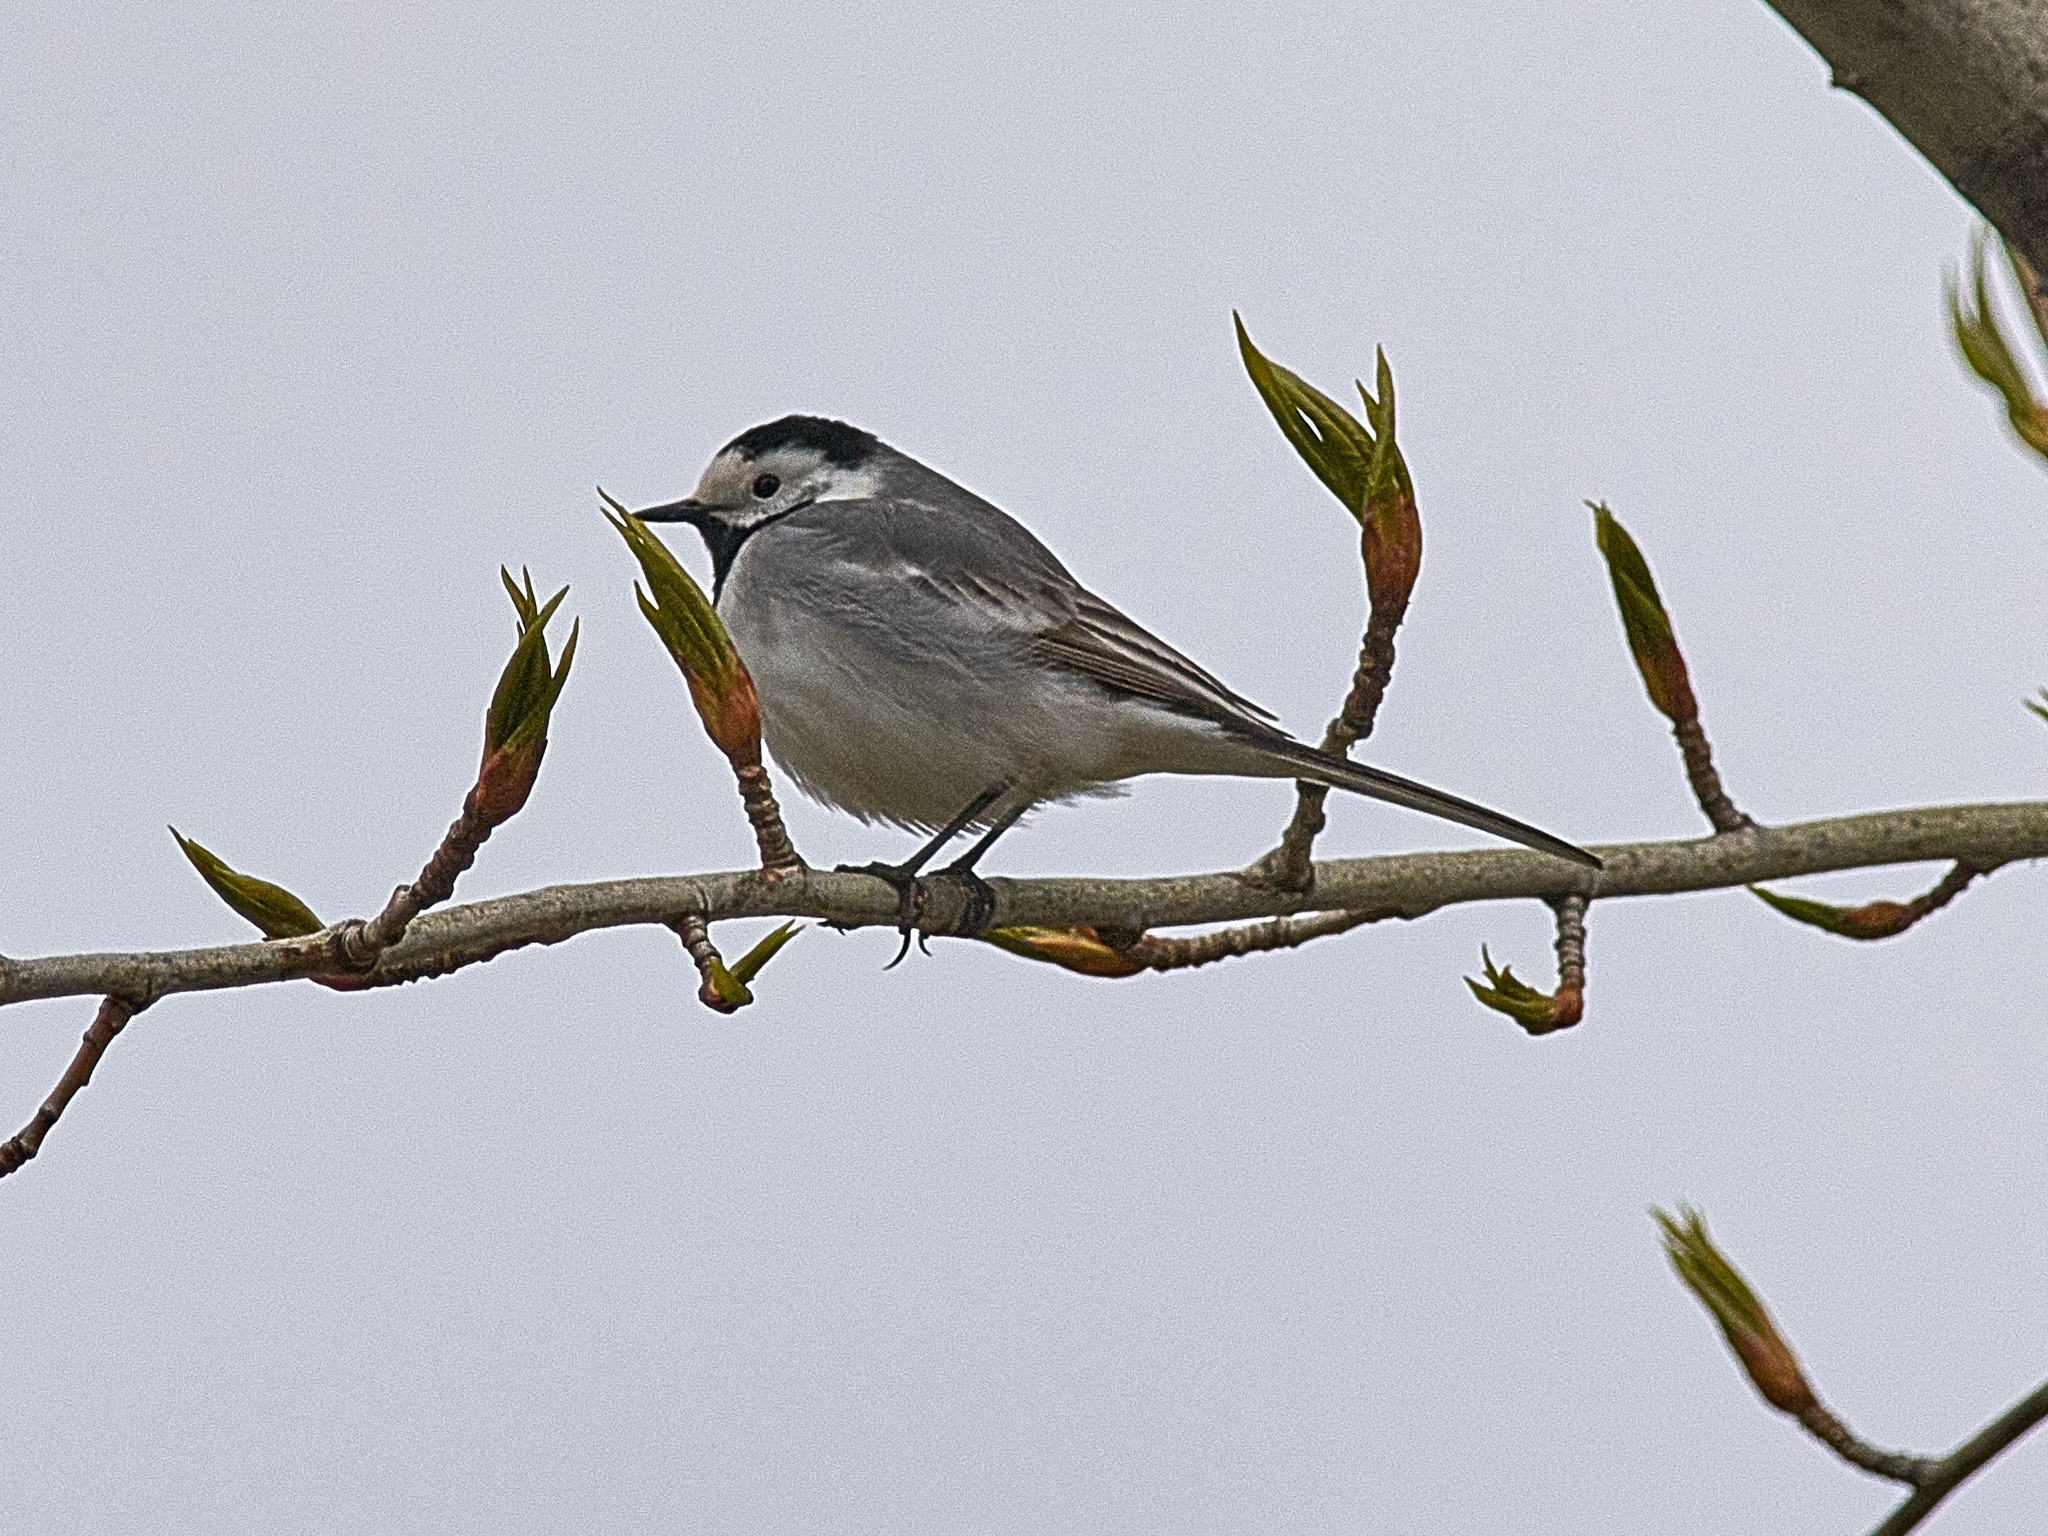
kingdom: Animalia
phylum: Chordata
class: Aves
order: Passeriformes
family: Motacillidae
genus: Motacilla
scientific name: Motacilla alba
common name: White wagtail
